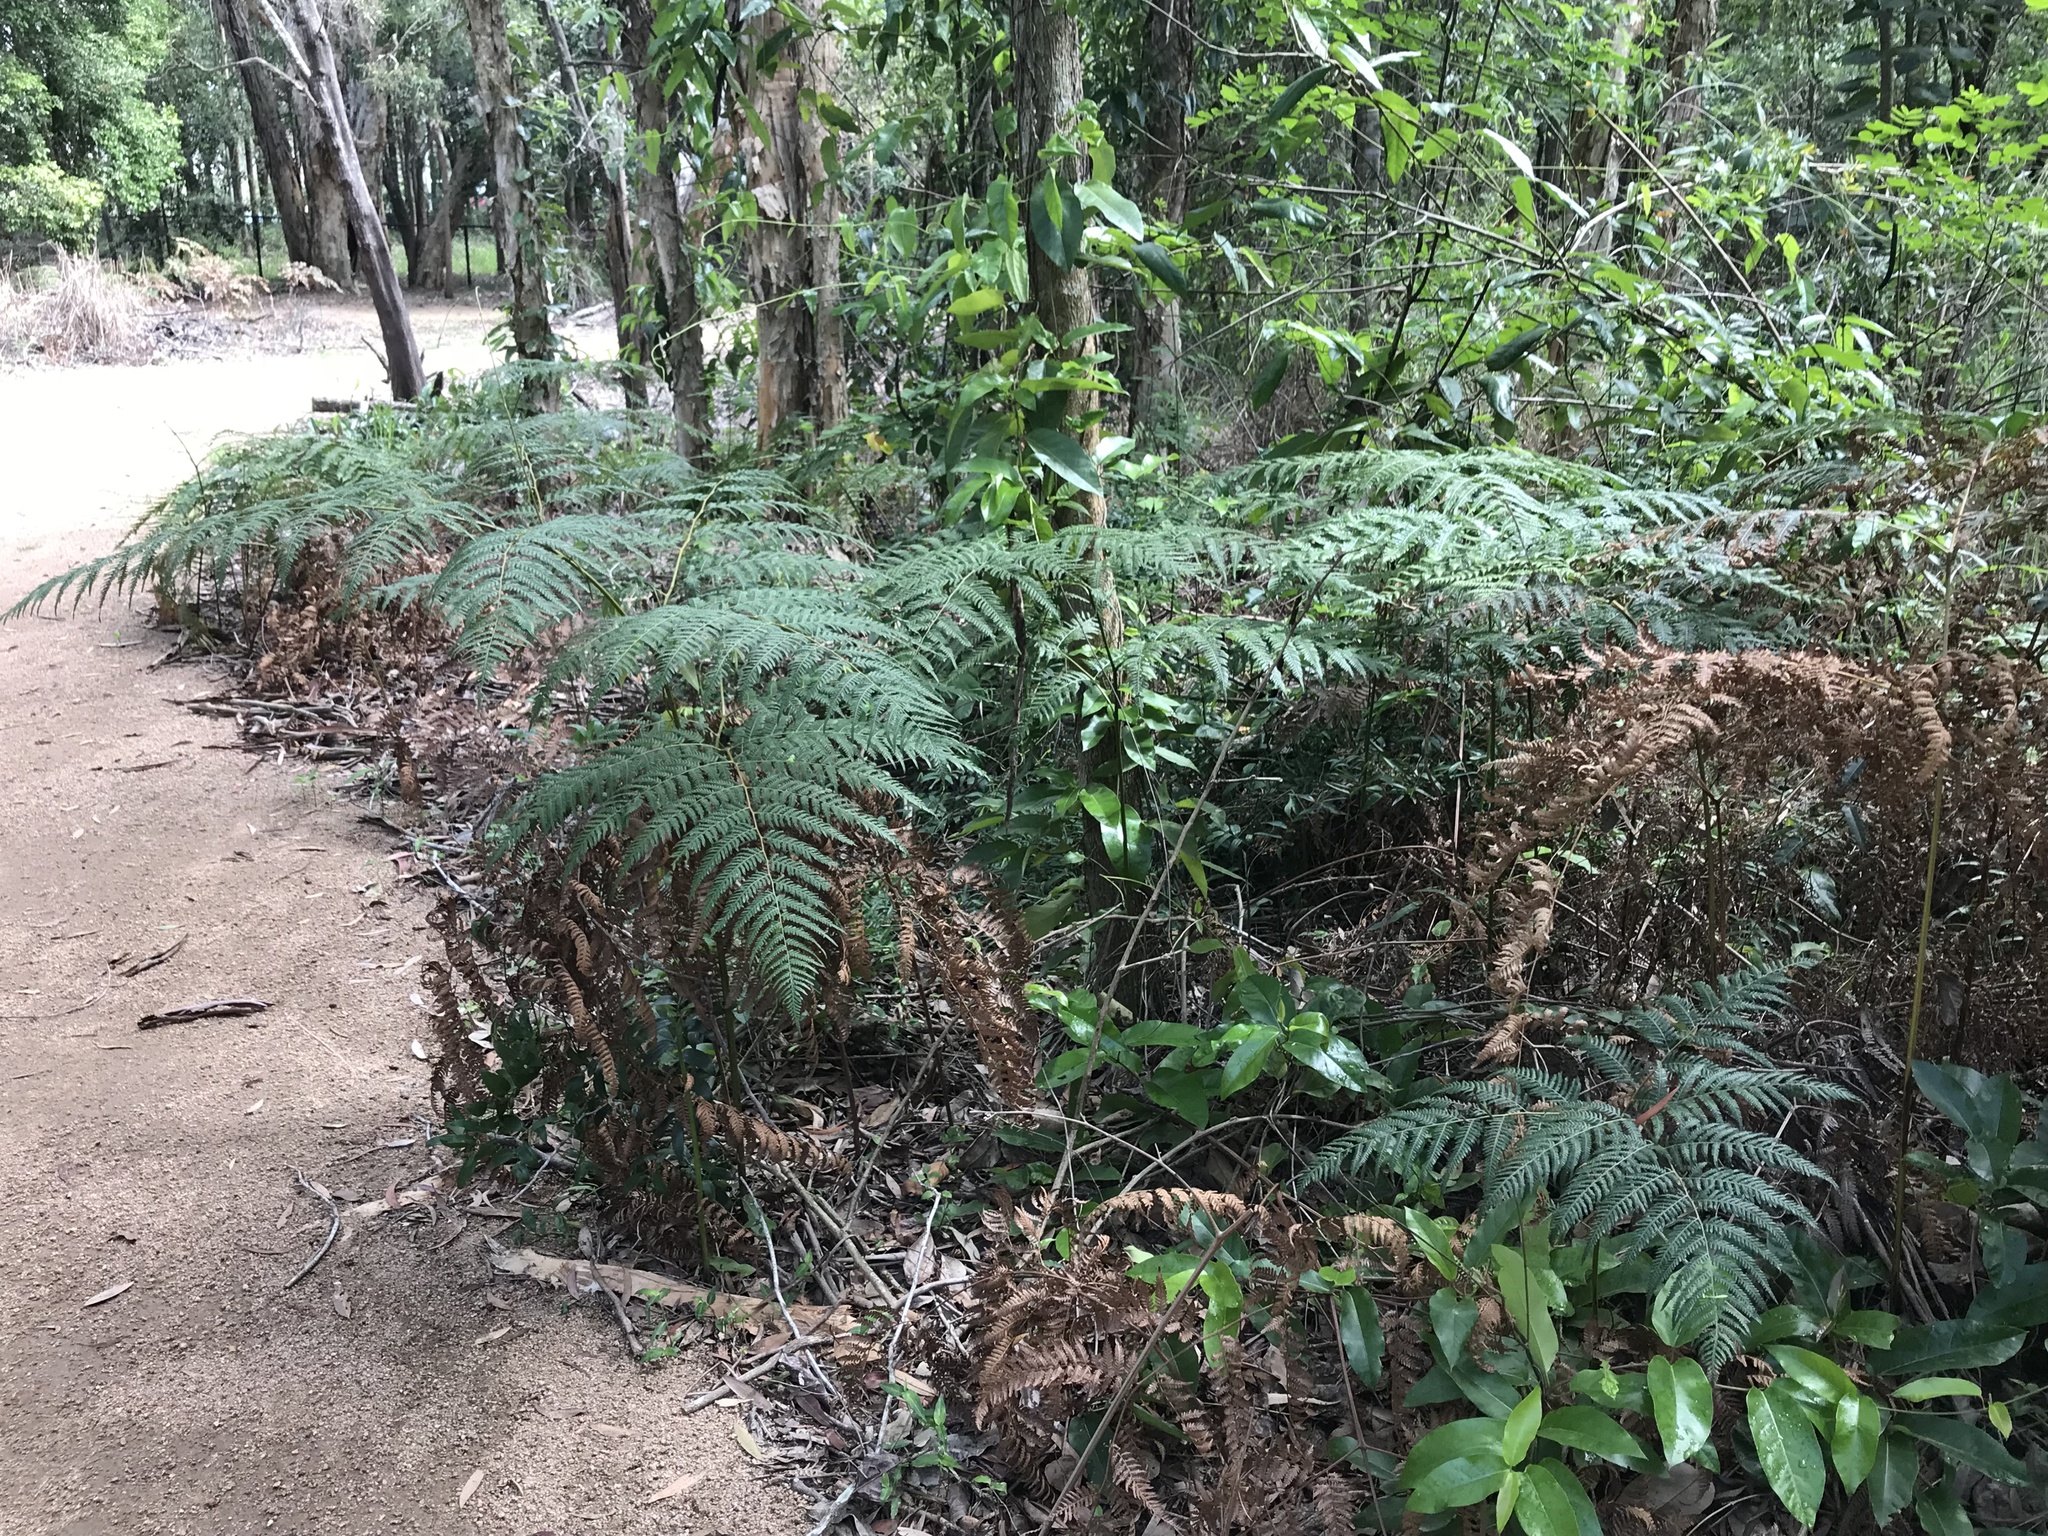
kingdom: Plantae
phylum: Tracheophyta
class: Polypodiopsida
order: Polypodiales
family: Dennstaedtiaceae
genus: Pteridium
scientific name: Pteridium esculentum
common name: Bracken fern
